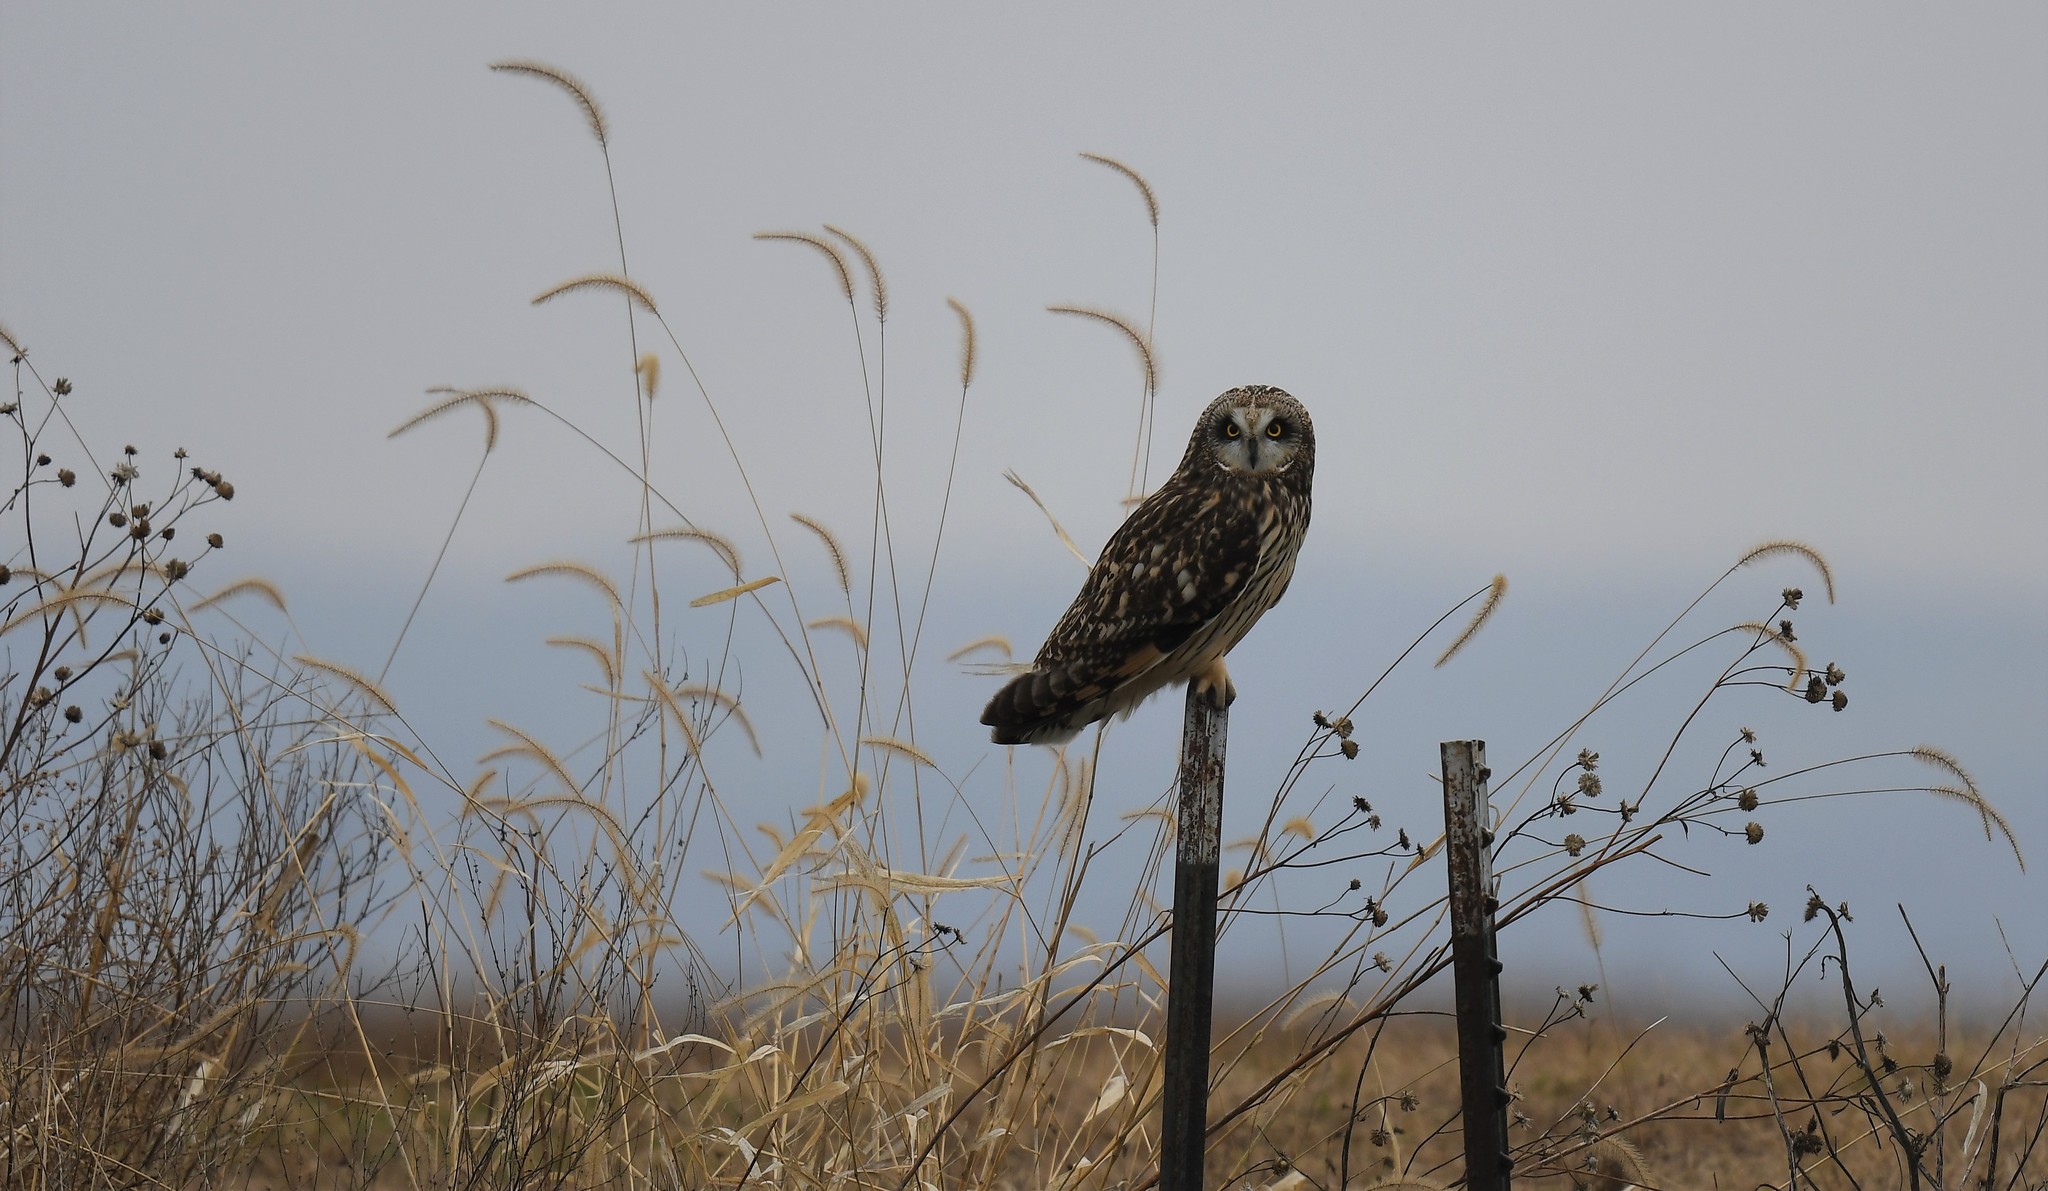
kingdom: Animalia
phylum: Chordata
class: Aves
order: Strigiformes
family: Strigidae
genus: Asio
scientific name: Asio flammeus
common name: Short-eared owl
